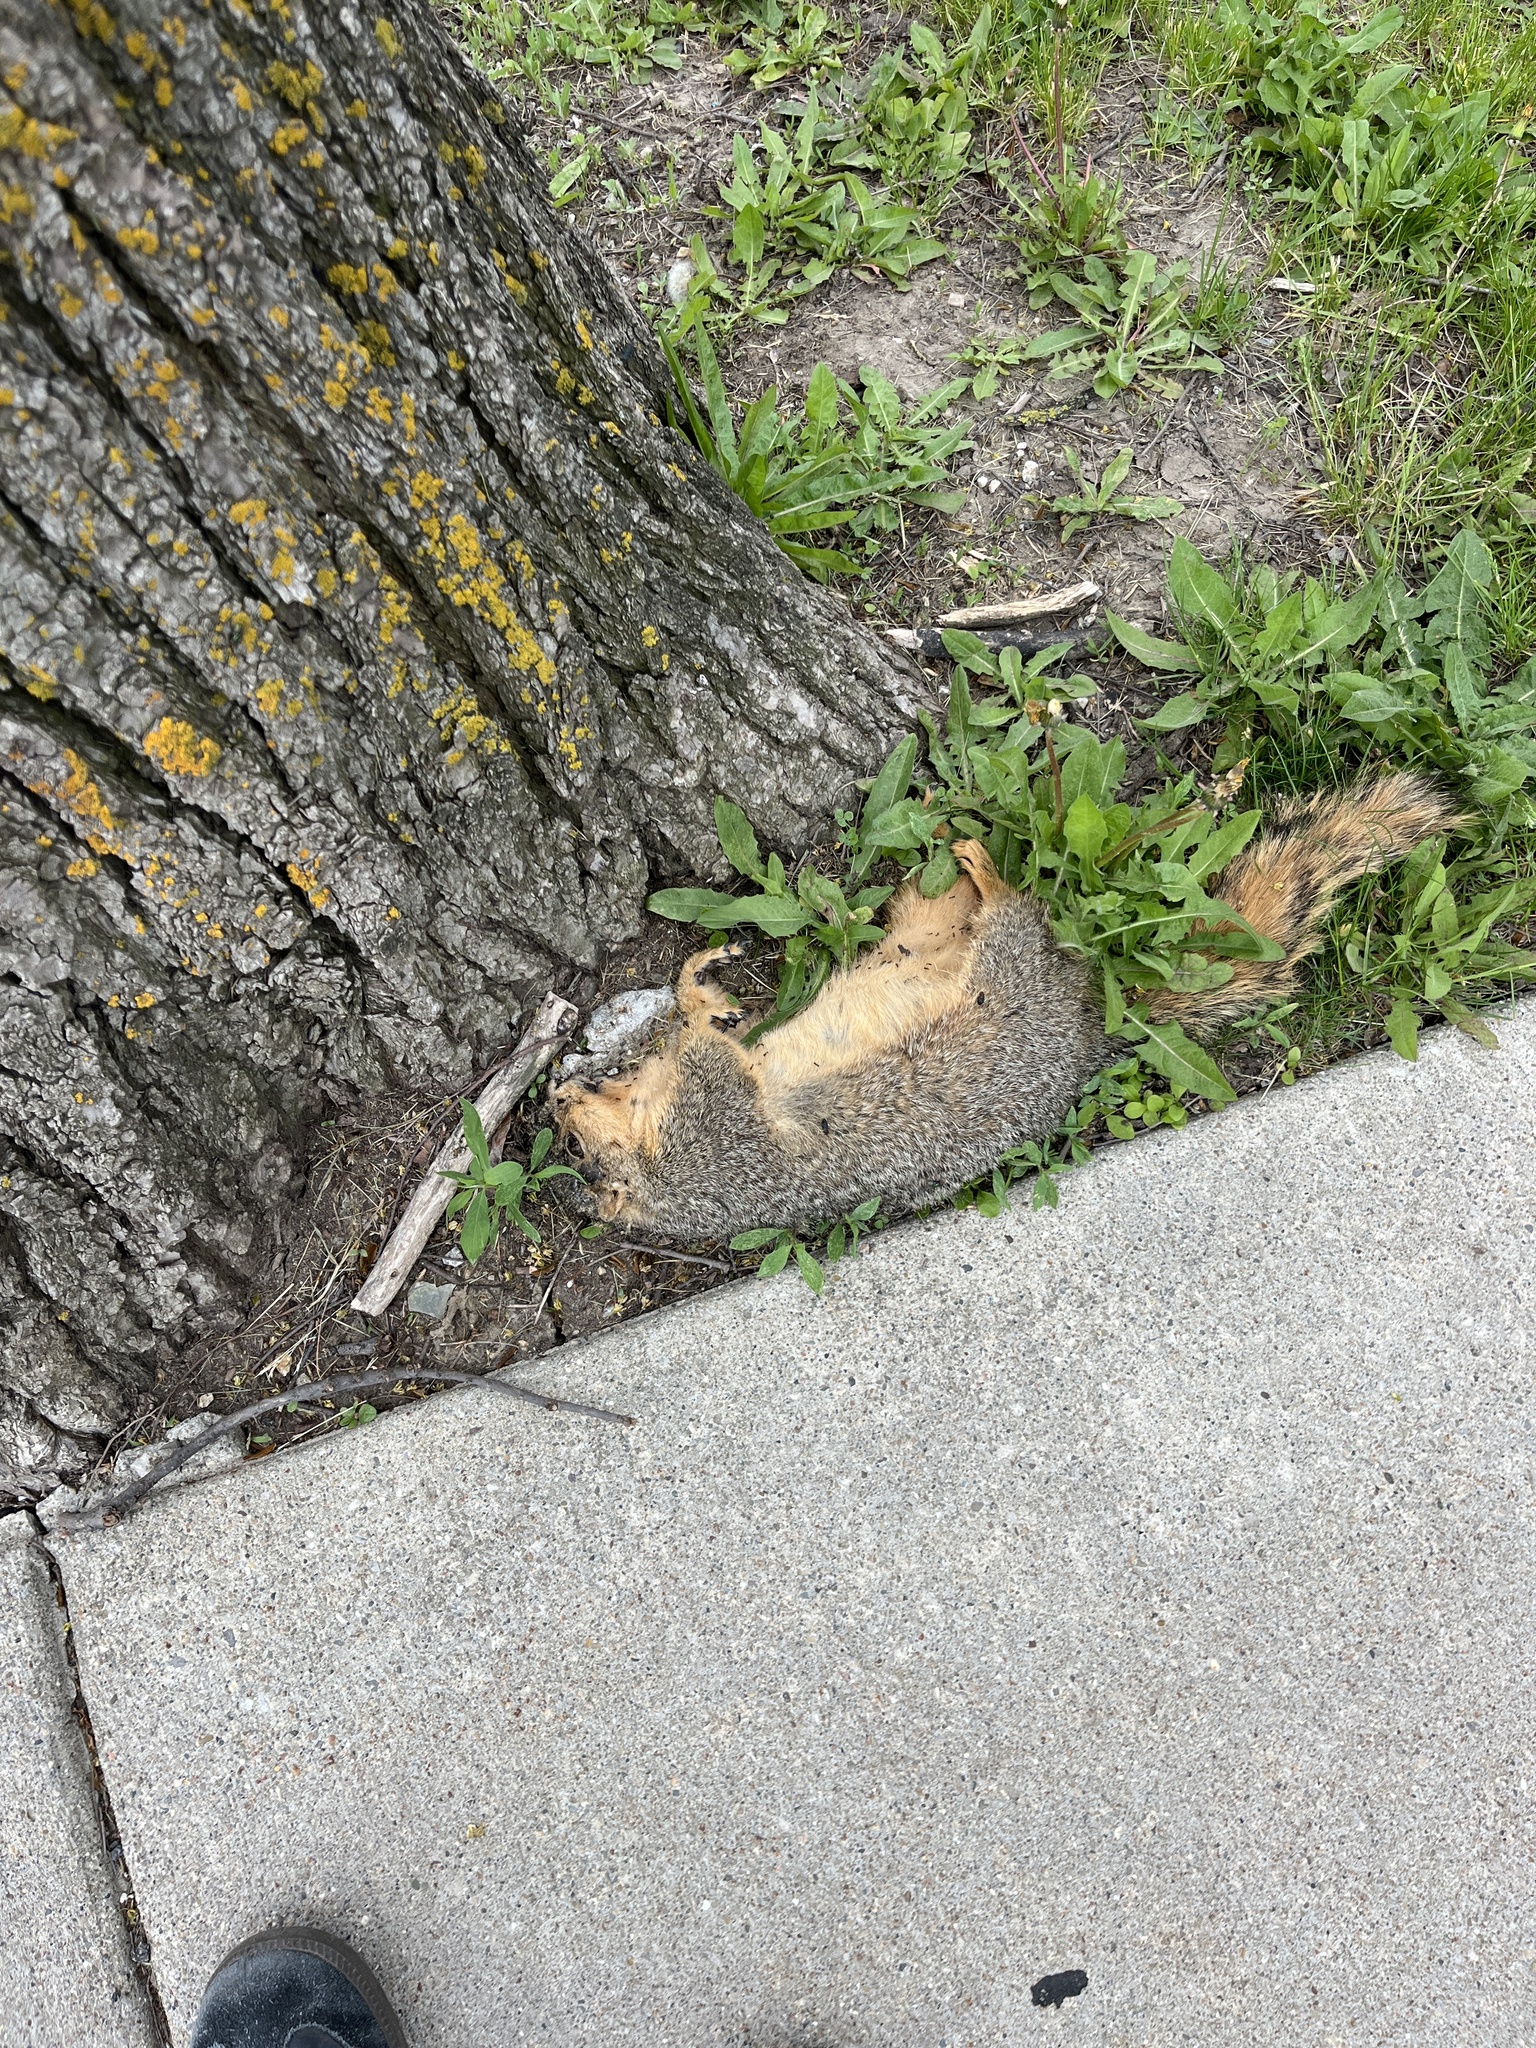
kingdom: Animalia
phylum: Chordata
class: Mammalia
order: Rodentia
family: Sciuridae
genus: Sciurus
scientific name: Sciurus niger
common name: Fox squirrel
